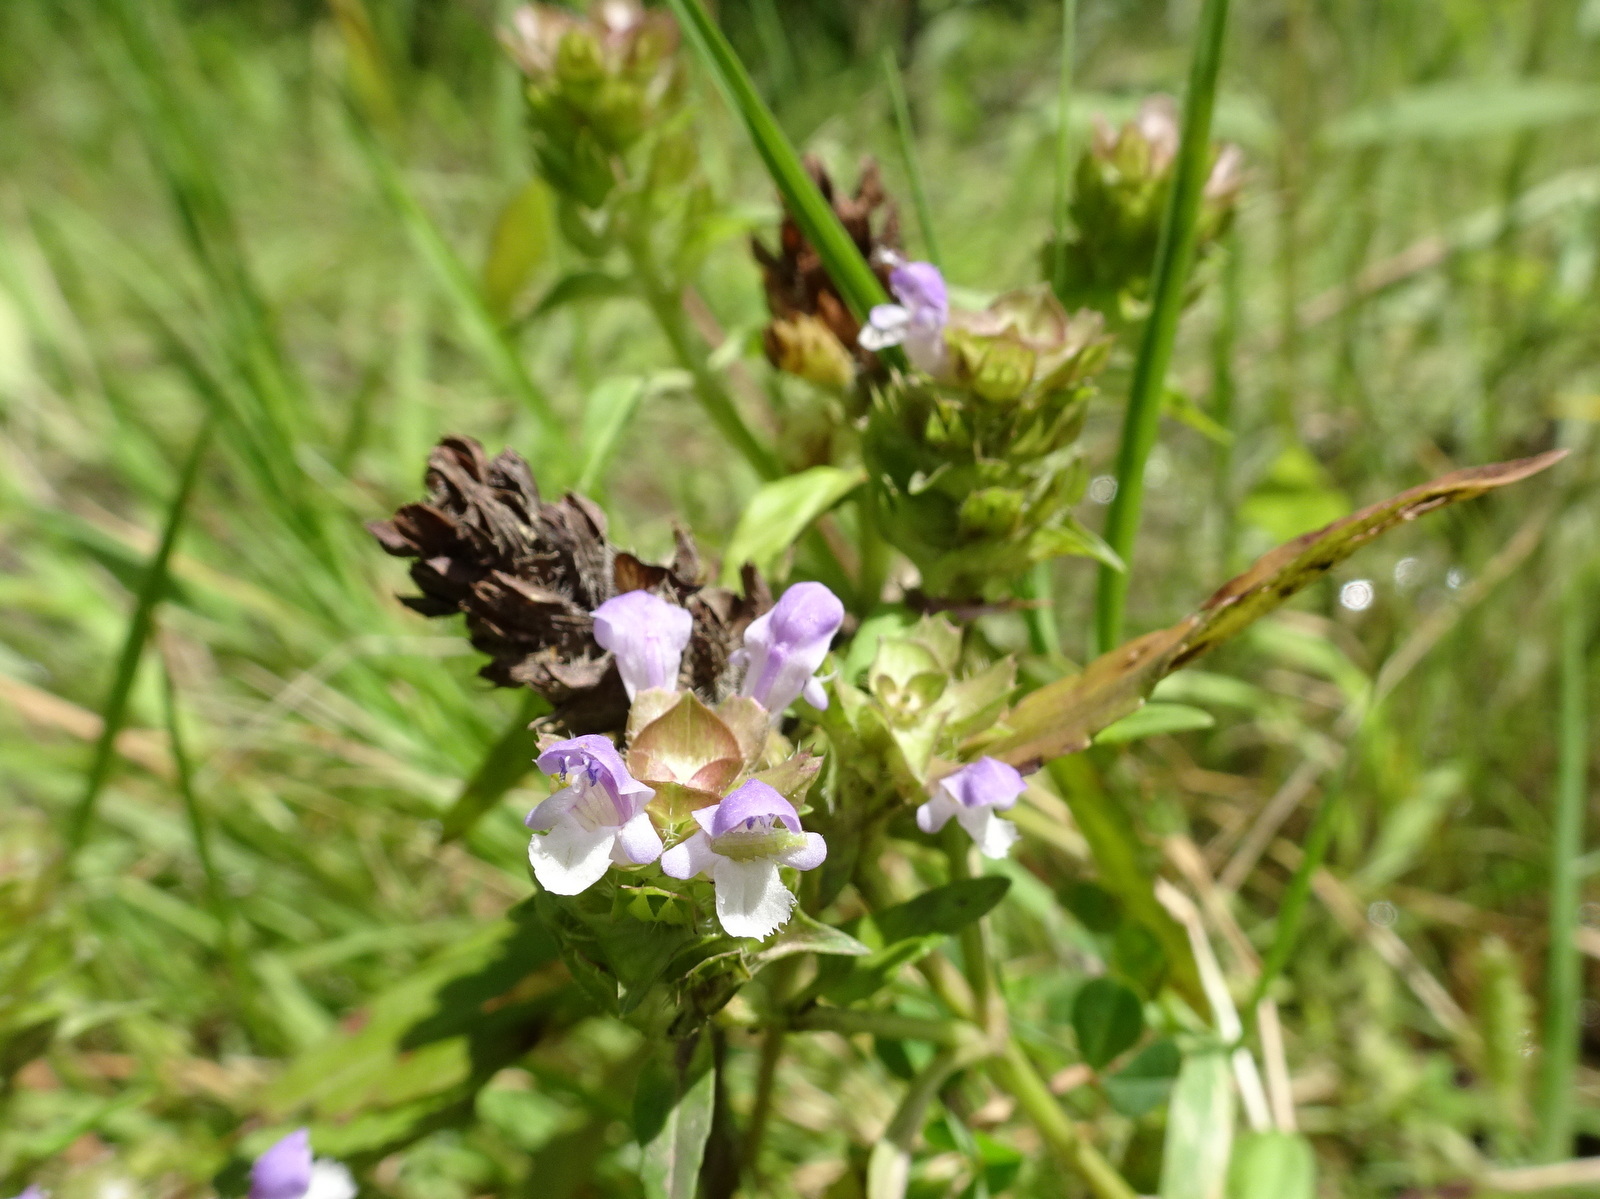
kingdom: Plantae
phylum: Tracheophyta
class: Magnoliopsida
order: Lamiales
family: Lamiaceae
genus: Prunella
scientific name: Prunella vulgaris
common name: Heal-all
